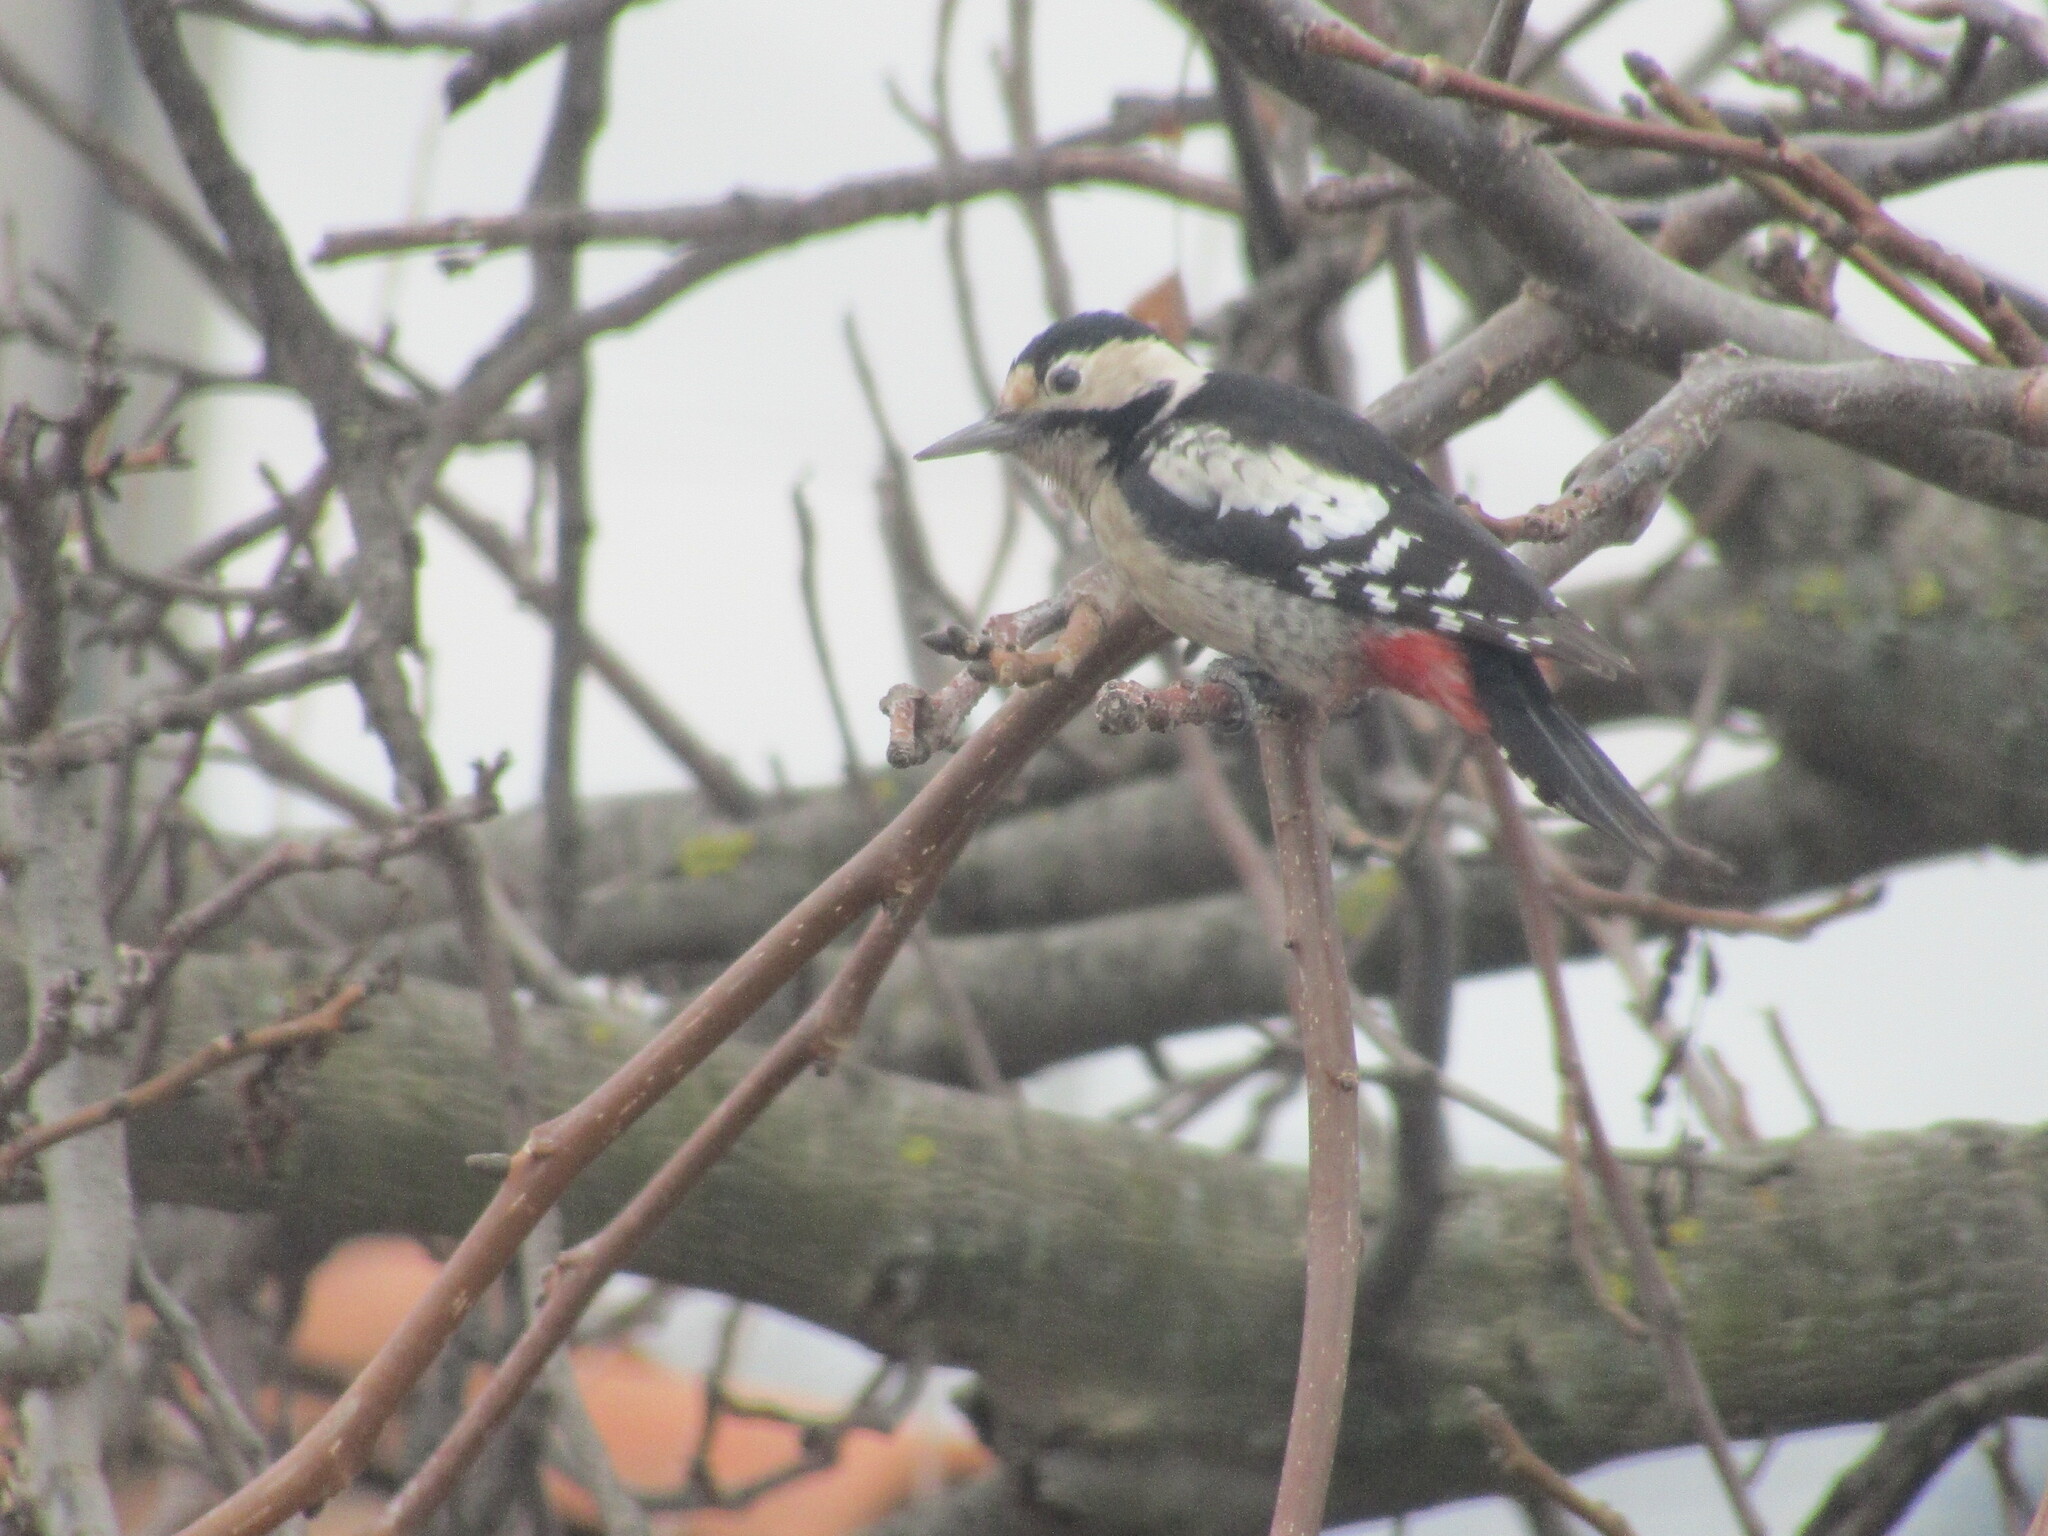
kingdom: Animalia
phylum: Chordata
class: Aves
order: Piciformes
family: Picidae
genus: Dendrocopos
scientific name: Dendrocopos syriacus
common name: Syrian woodpecker
